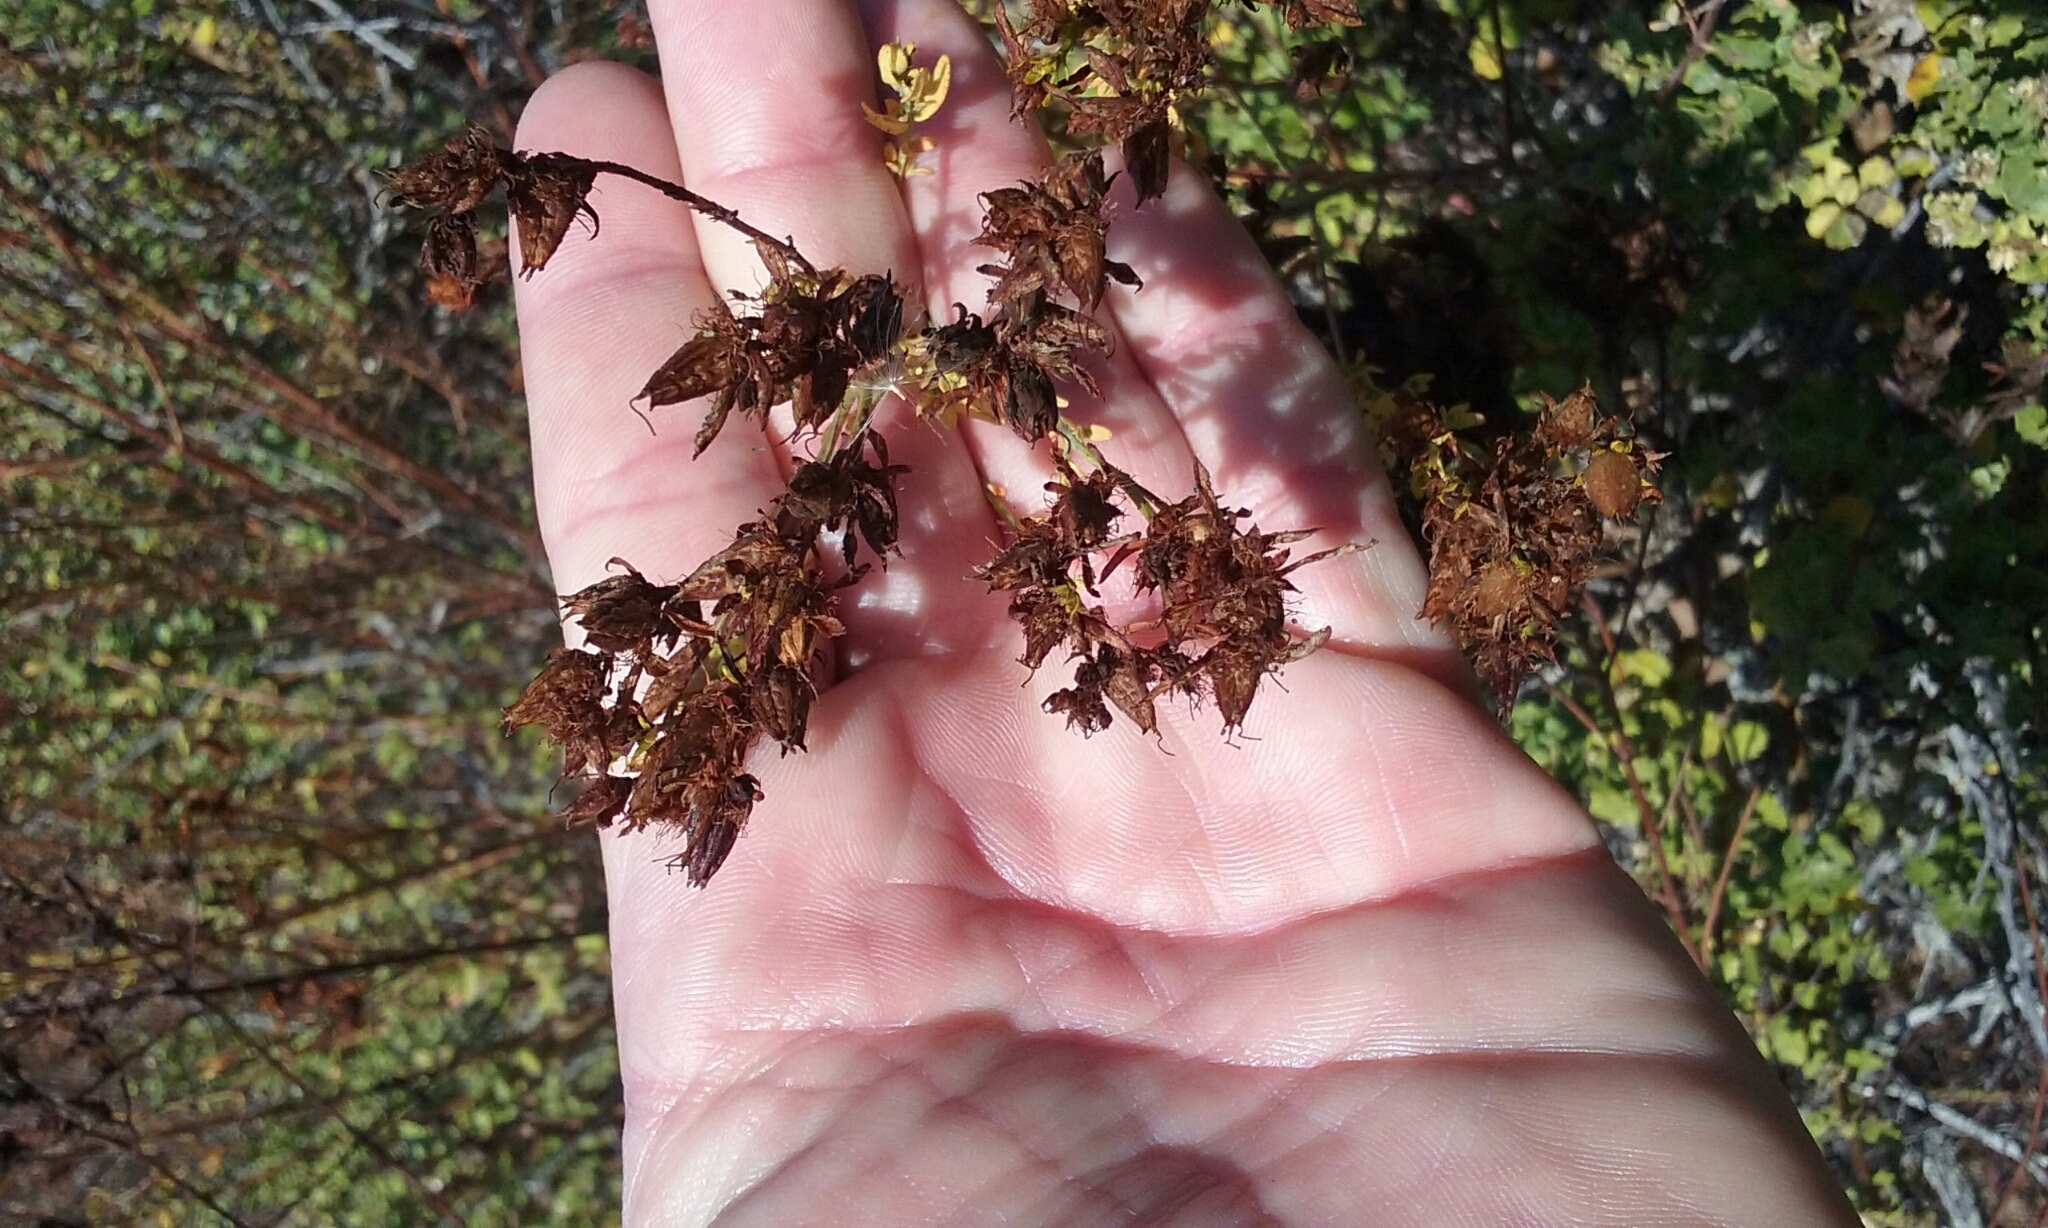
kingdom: Plantae
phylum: Tracheophyta
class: Magnoliopsida
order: Malpighiales
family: Hypericaceae
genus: Hypericum
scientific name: Hypericum perforatum
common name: Common st. johnswort
